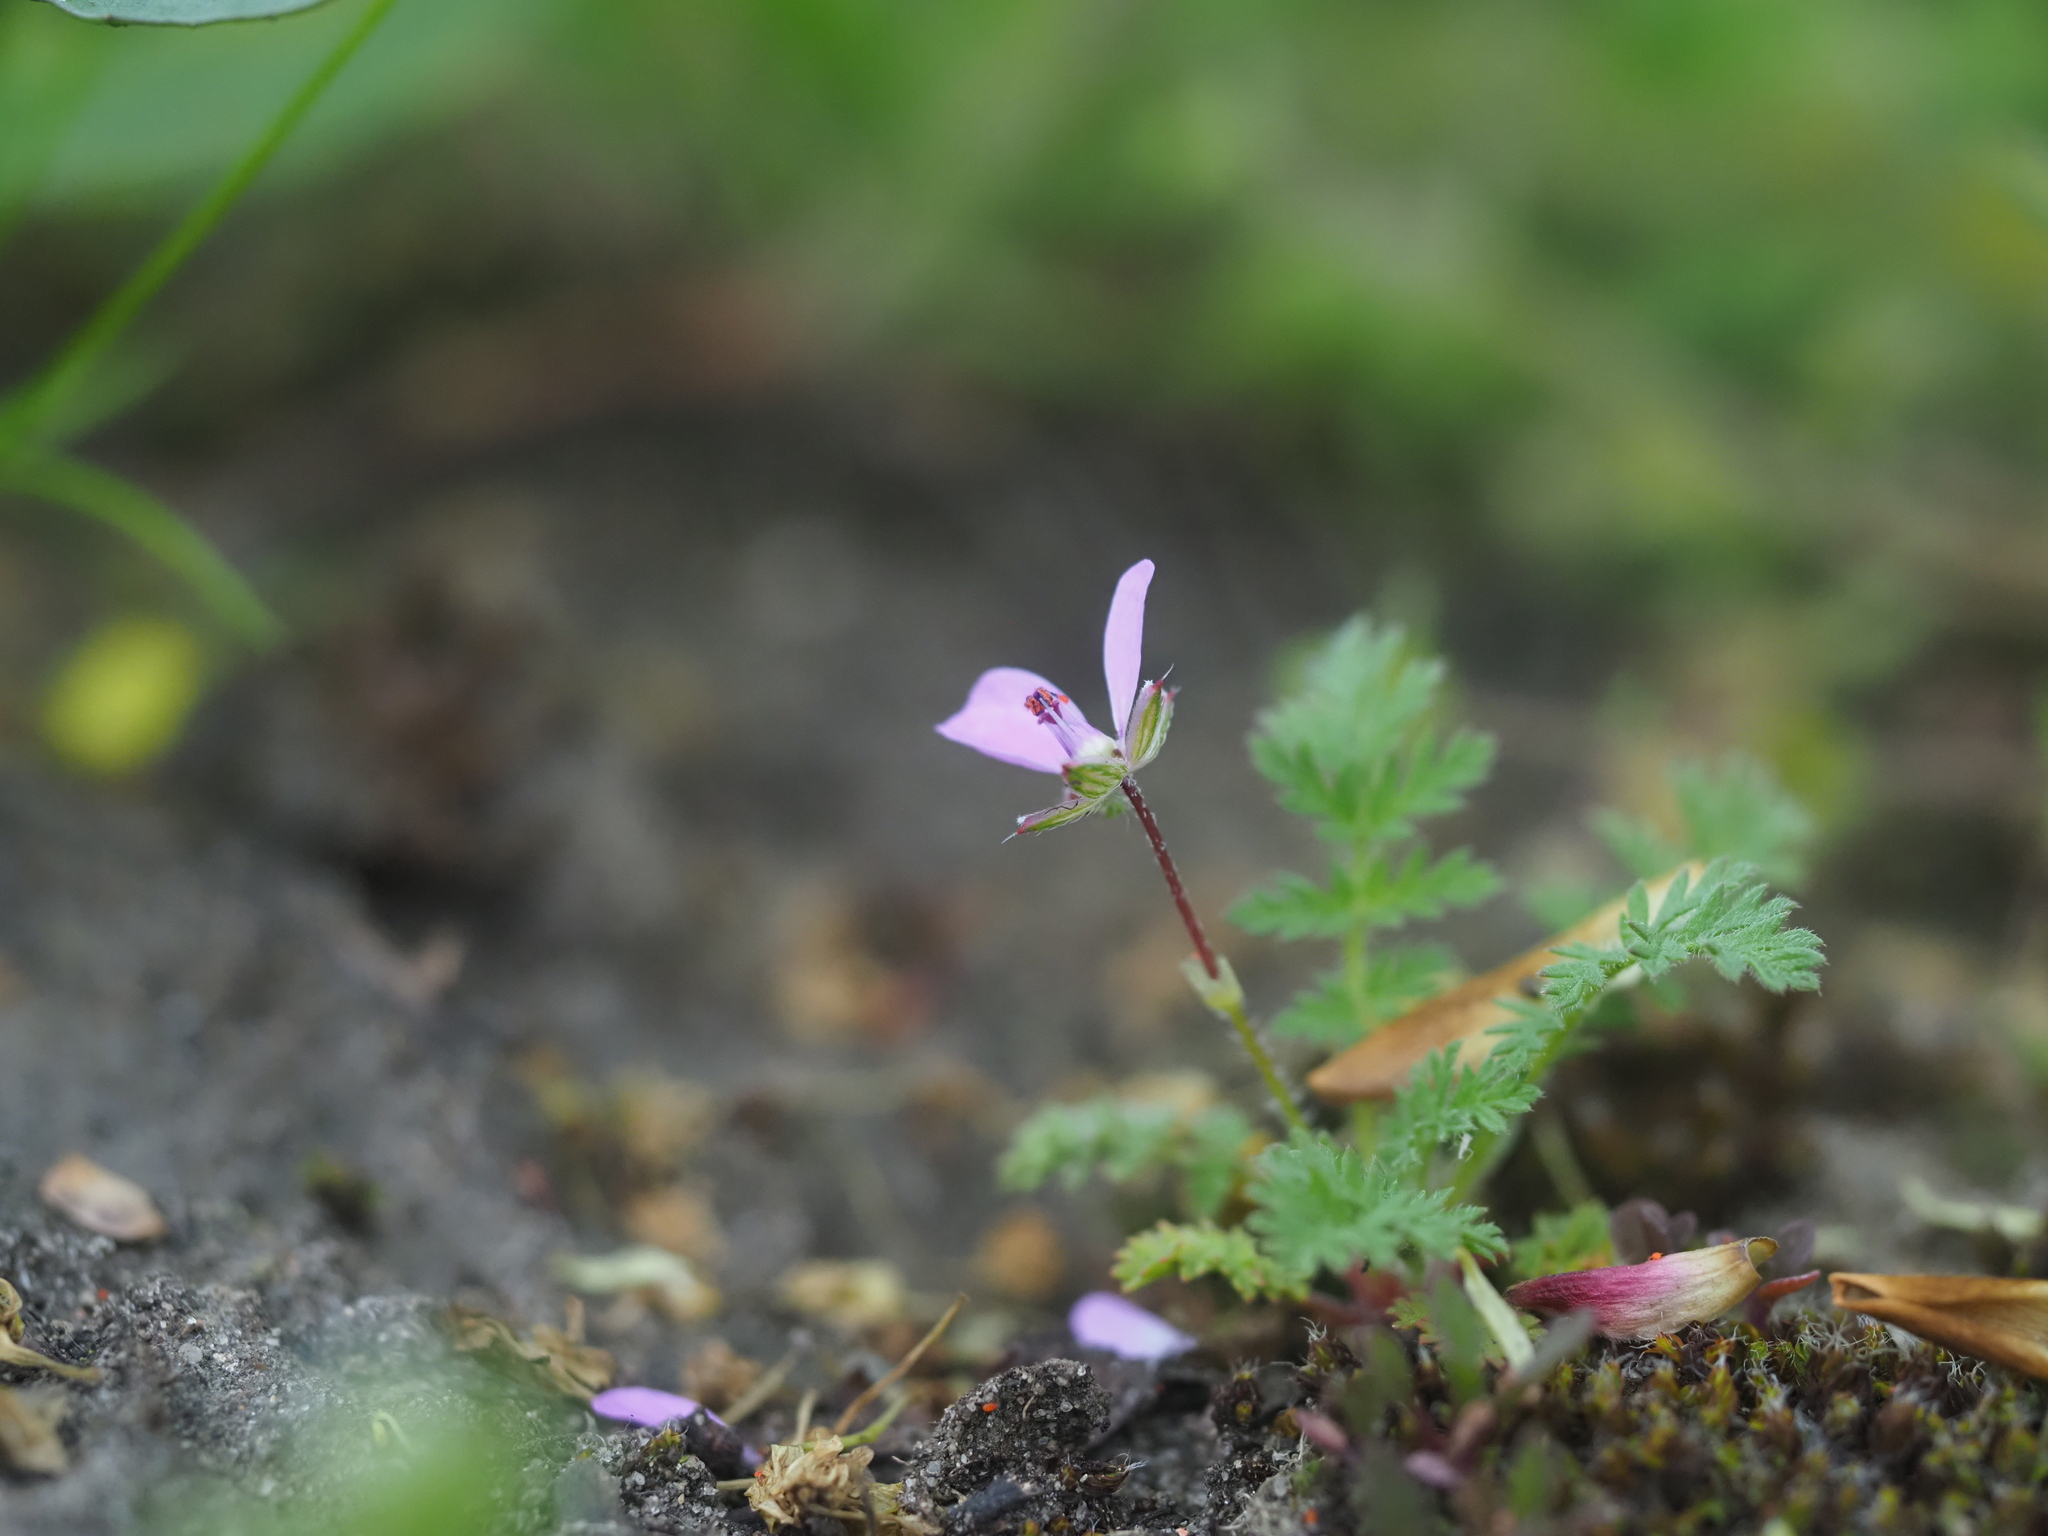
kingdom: Plantae
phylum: Tracheophyta
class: Magnoliopsida
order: Geraniales
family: Geraniaceae
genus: Erodium
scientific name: Erodium cicutarium
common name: Common stork's-bill
